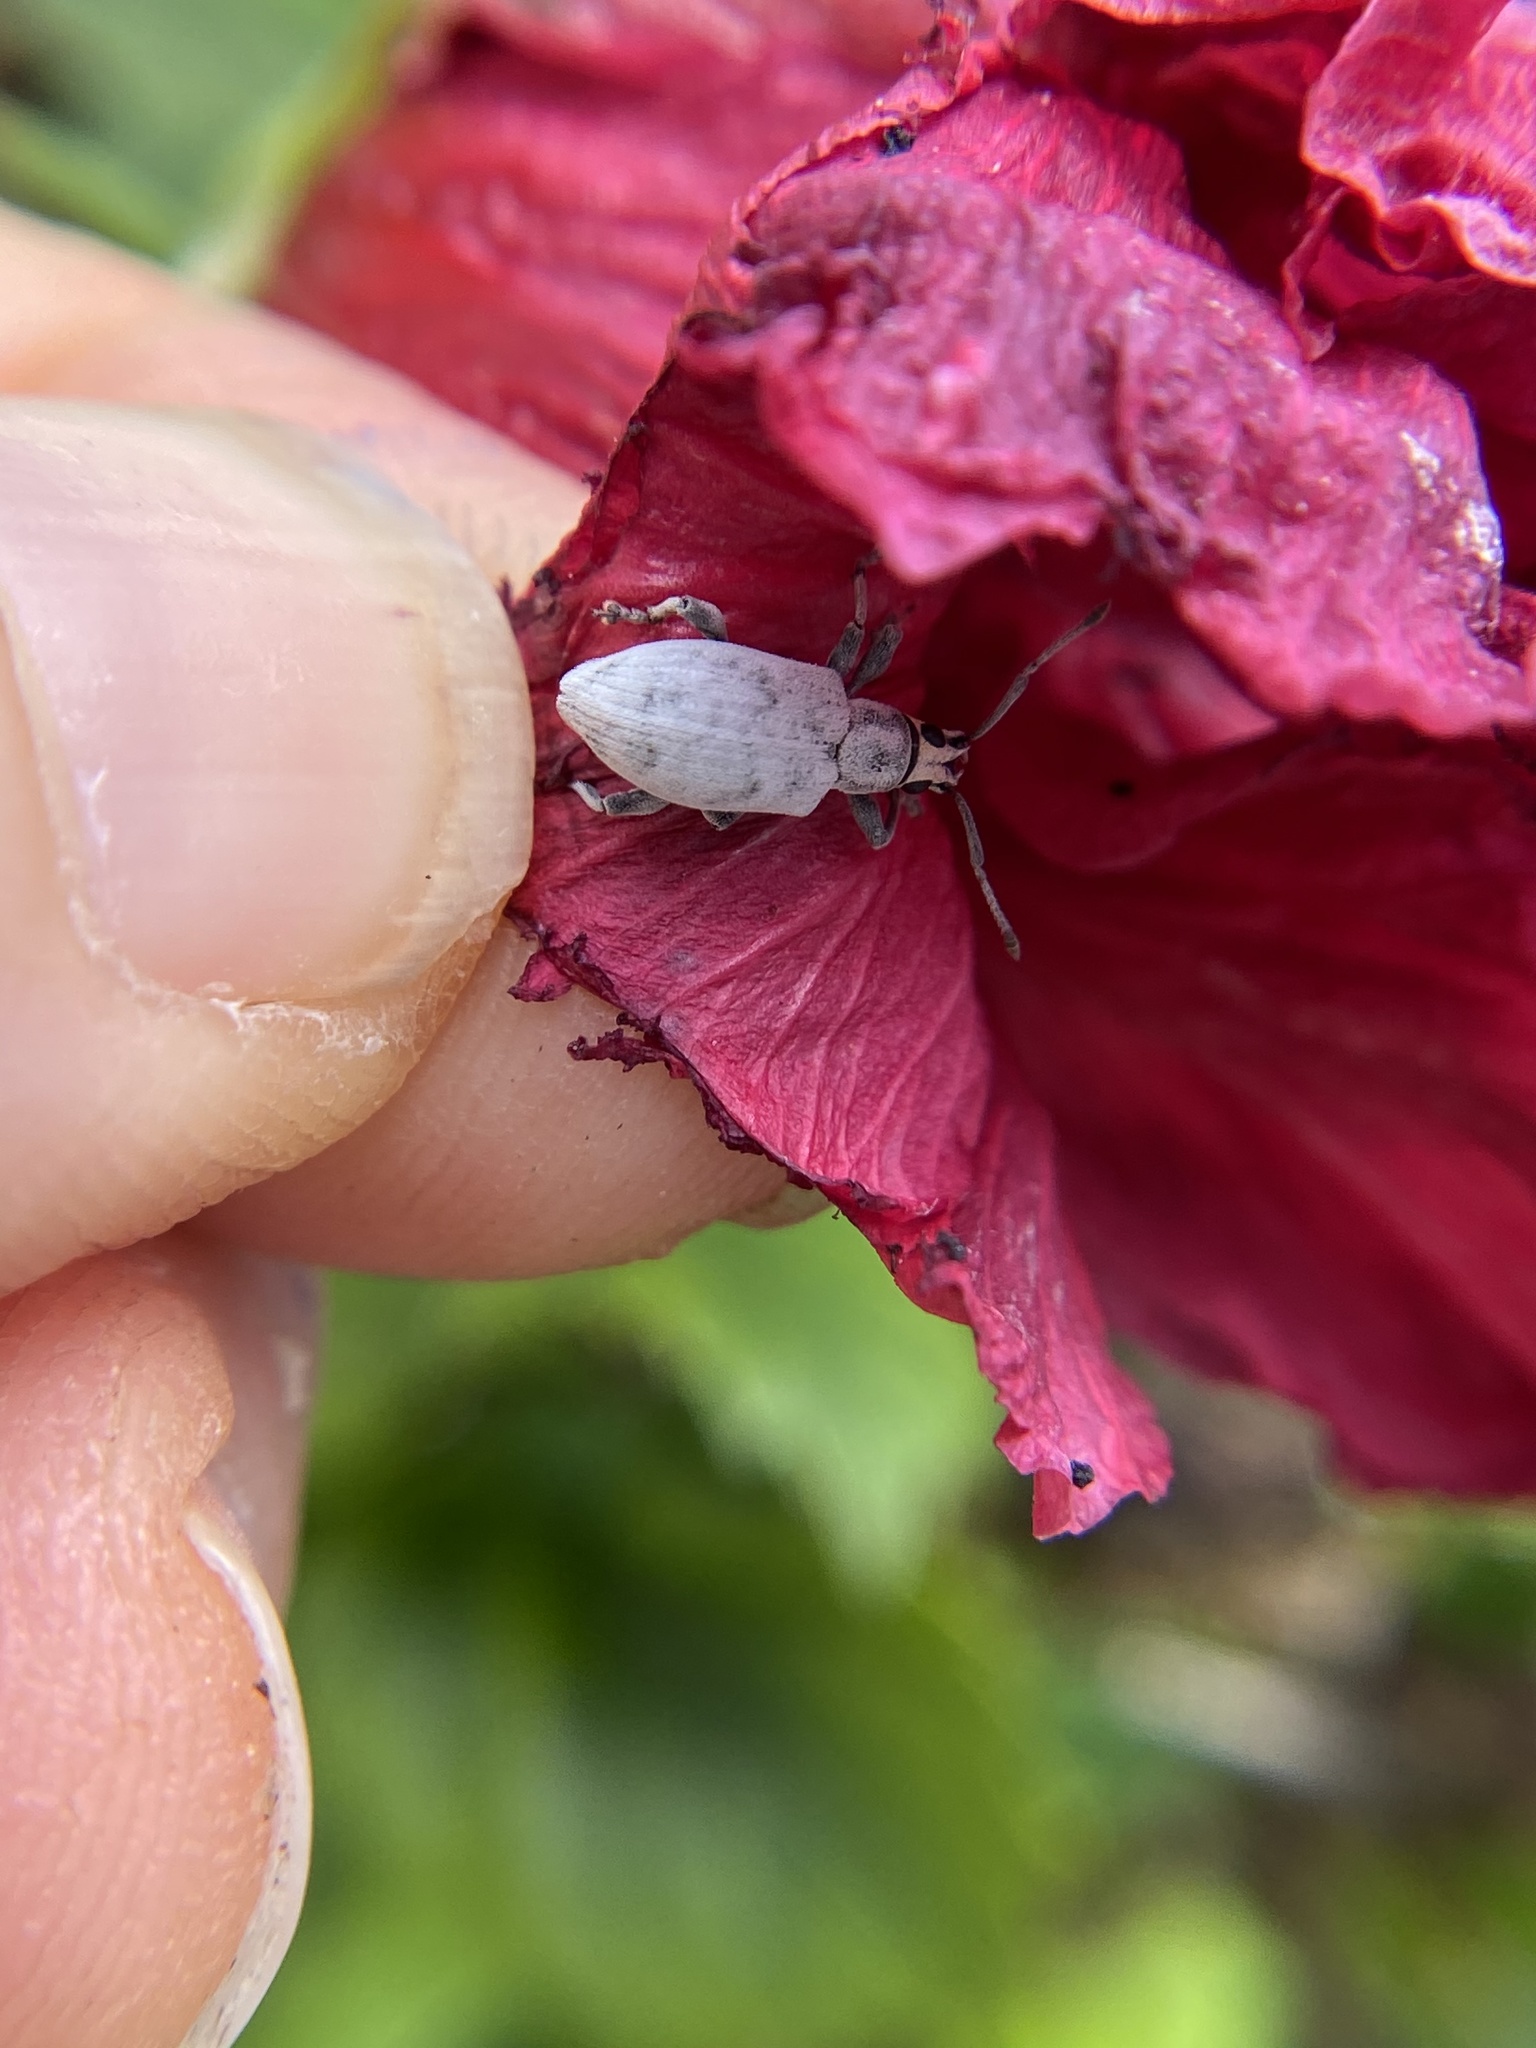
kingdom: Animalia
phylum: Arthropoda
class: Insecta
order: Coleoptera
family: Curculionidae
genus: Myllocerus
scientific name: Myllocerus undecimpustulatus
